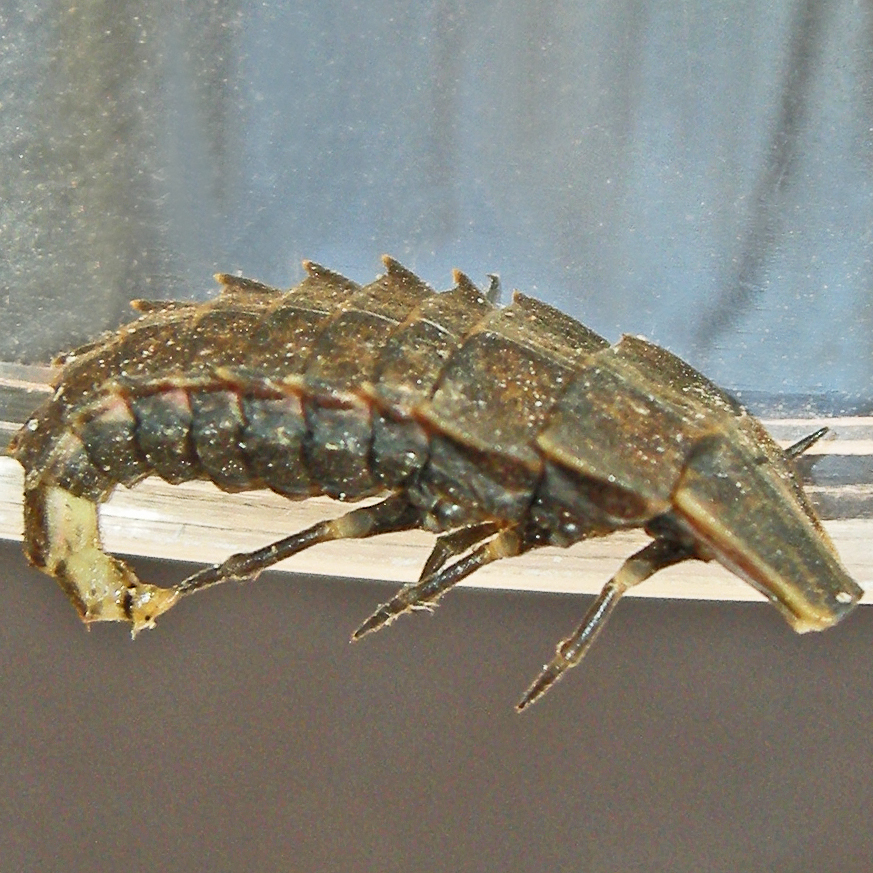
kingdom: Animalia
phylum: Arthropoda
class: Insecta
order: Coleoptera
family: Lampyridae
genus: Pyractomena
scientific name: Pyractomena borealis
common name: Northern firefly
